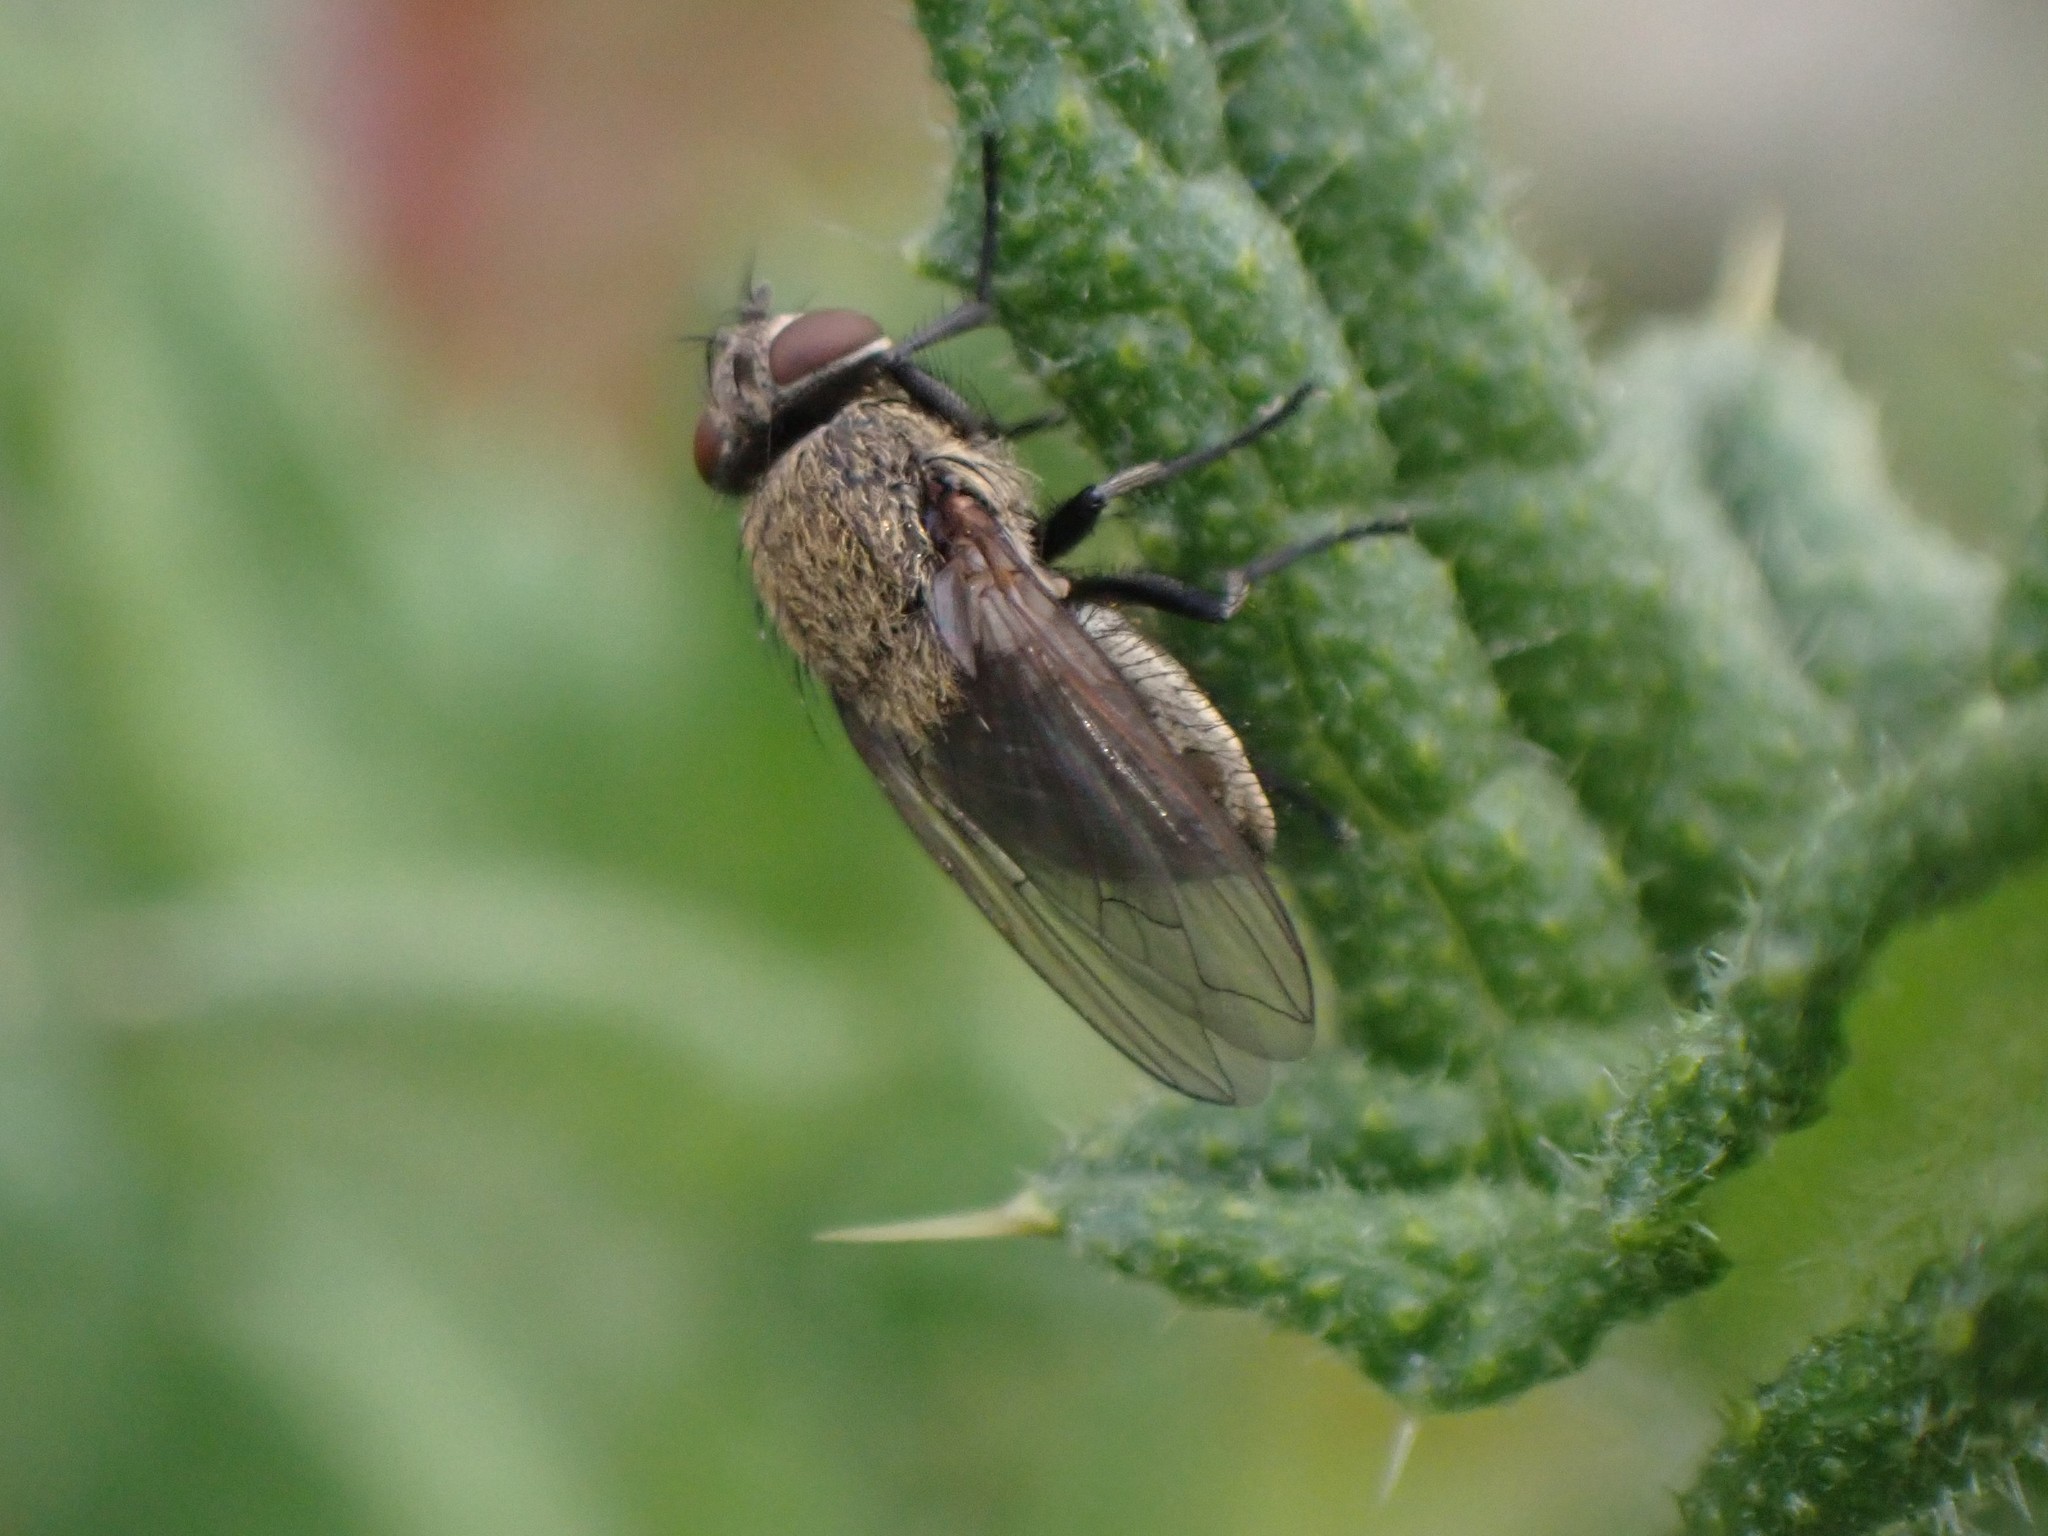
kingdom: Animalia
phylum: Arthropoda
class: Insecta
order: Diptera
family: Polleniidae
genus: Pollenia
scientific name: Pollenia
